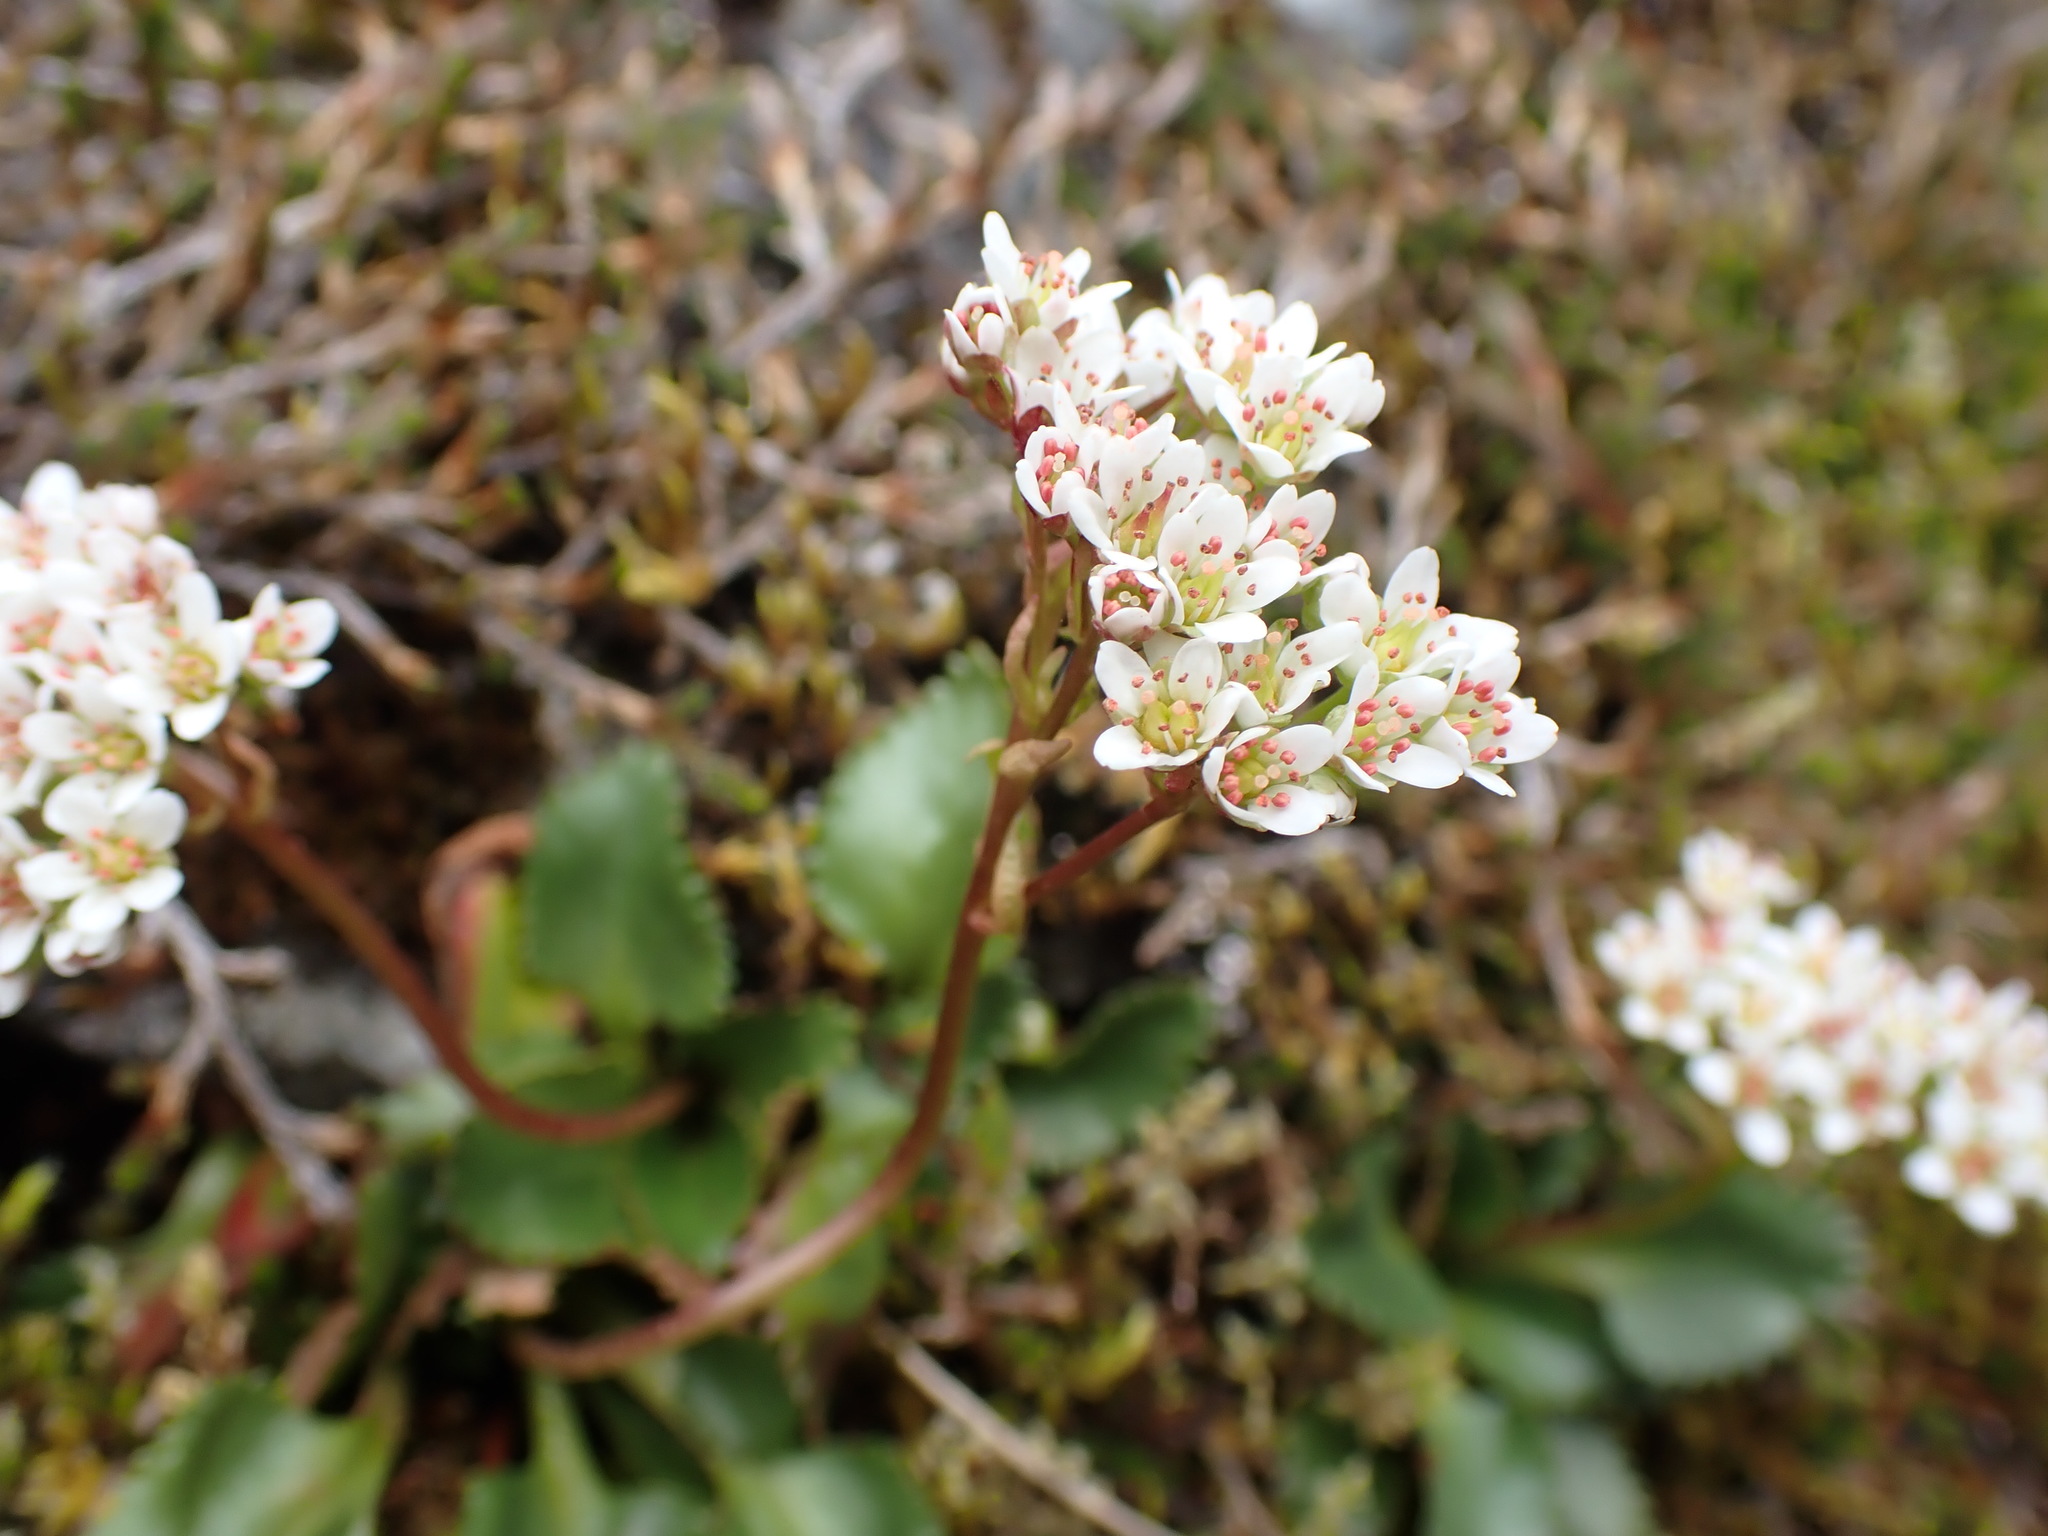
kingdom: Plantae
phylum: Tracheophyta
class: Magnoliopsida
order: Saxifragales
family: Saxifragaceae
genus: Micranthes
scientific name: Micranthes rufidula
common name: Rustyhair saxifrage
